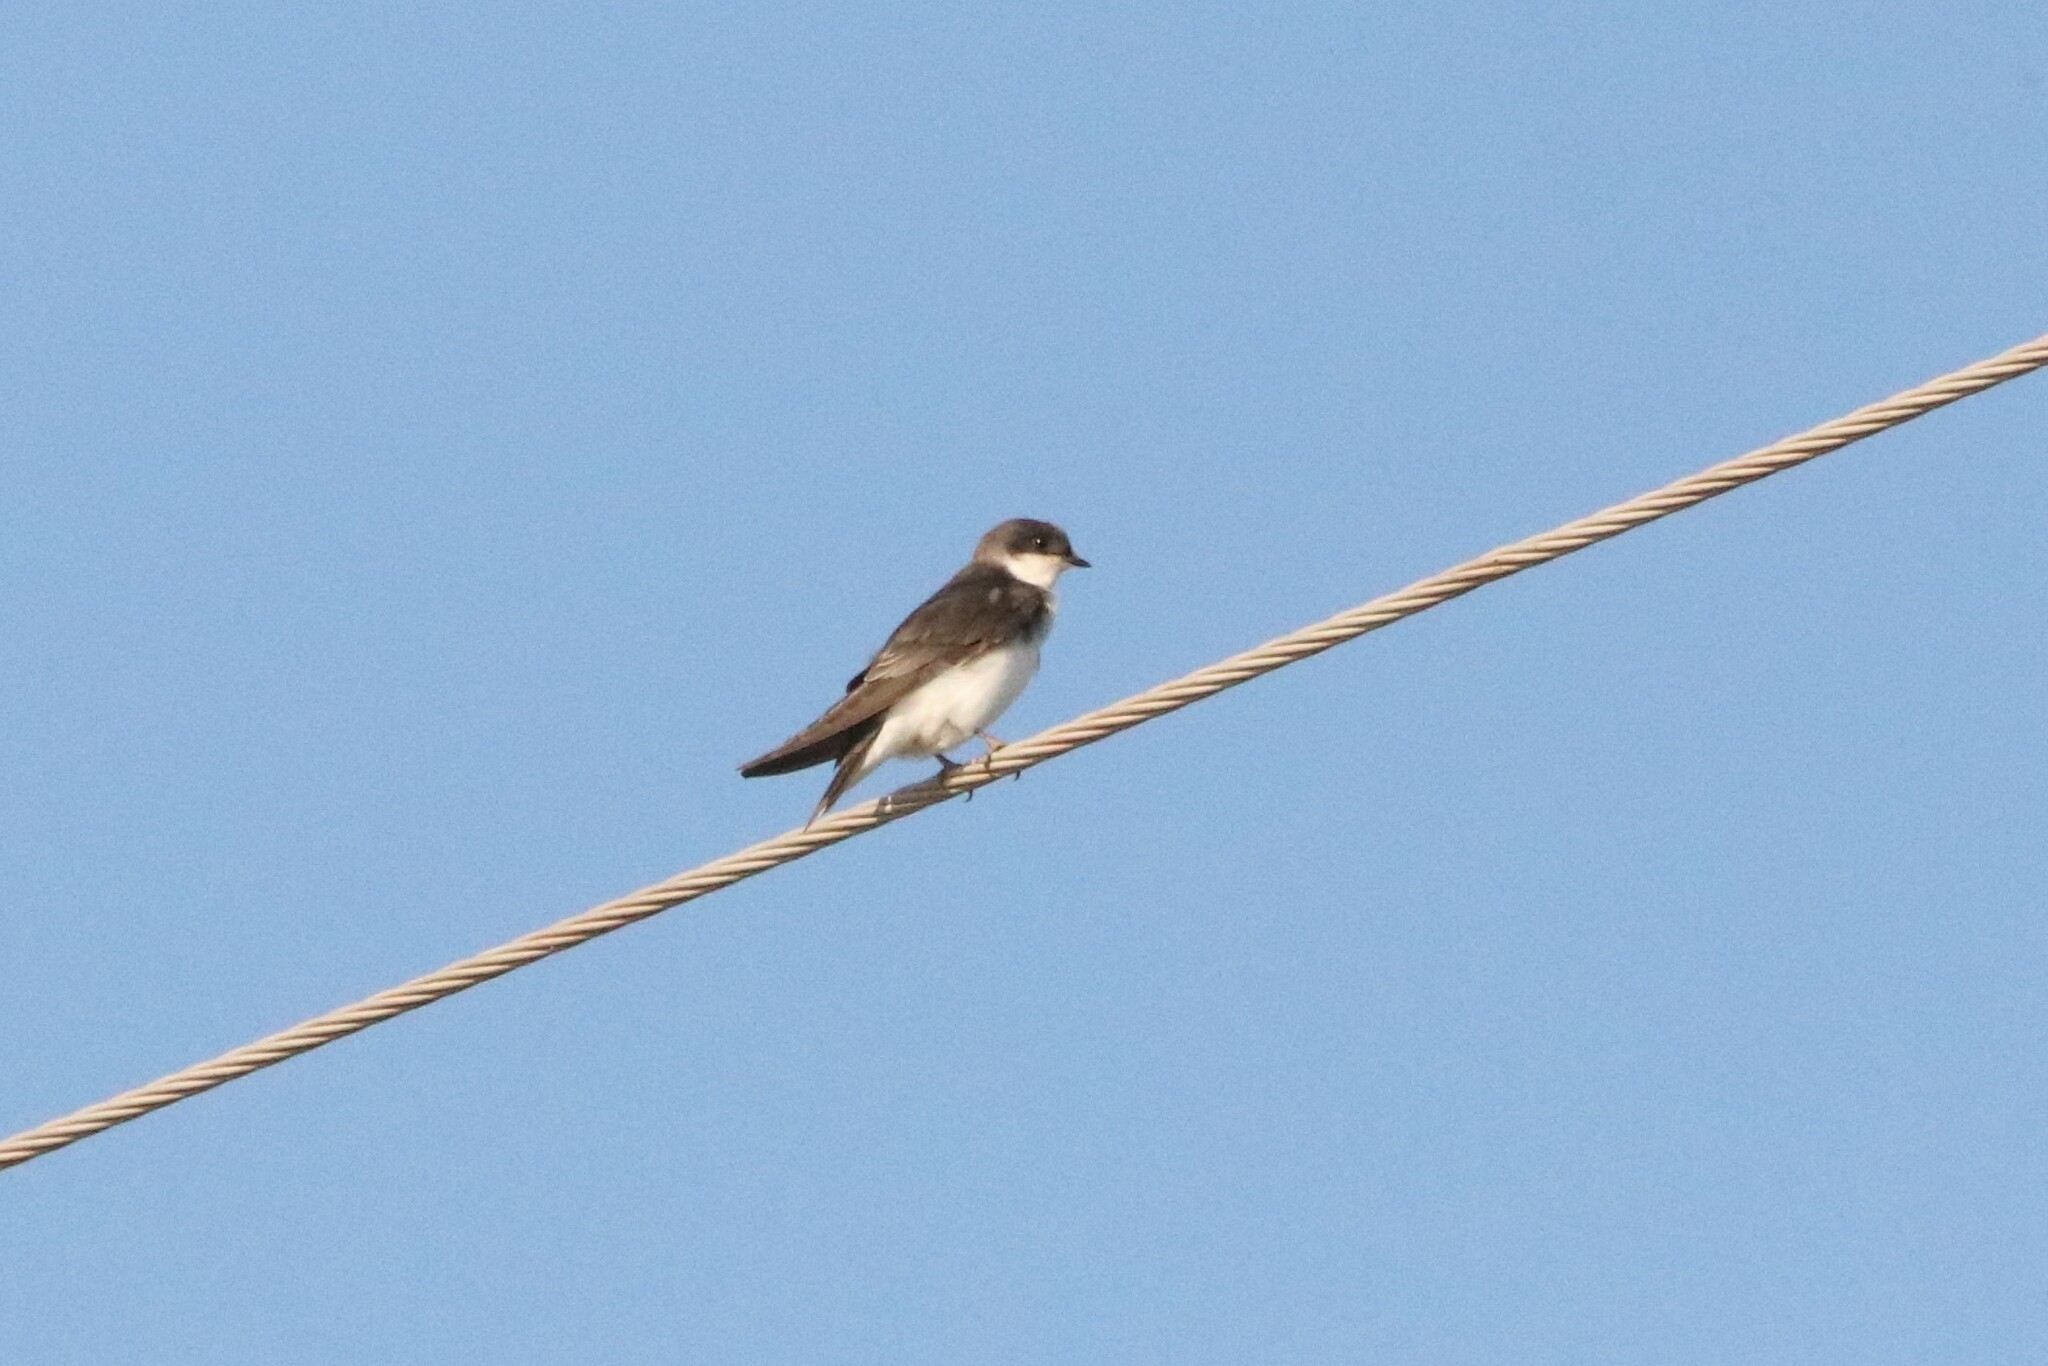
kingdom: Animalia
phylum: Chordata
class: Aves
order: Passeriformes
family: Hirundinidae
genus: Tachycineta
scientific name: Tachycineta bicolor
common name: Tree swallow
